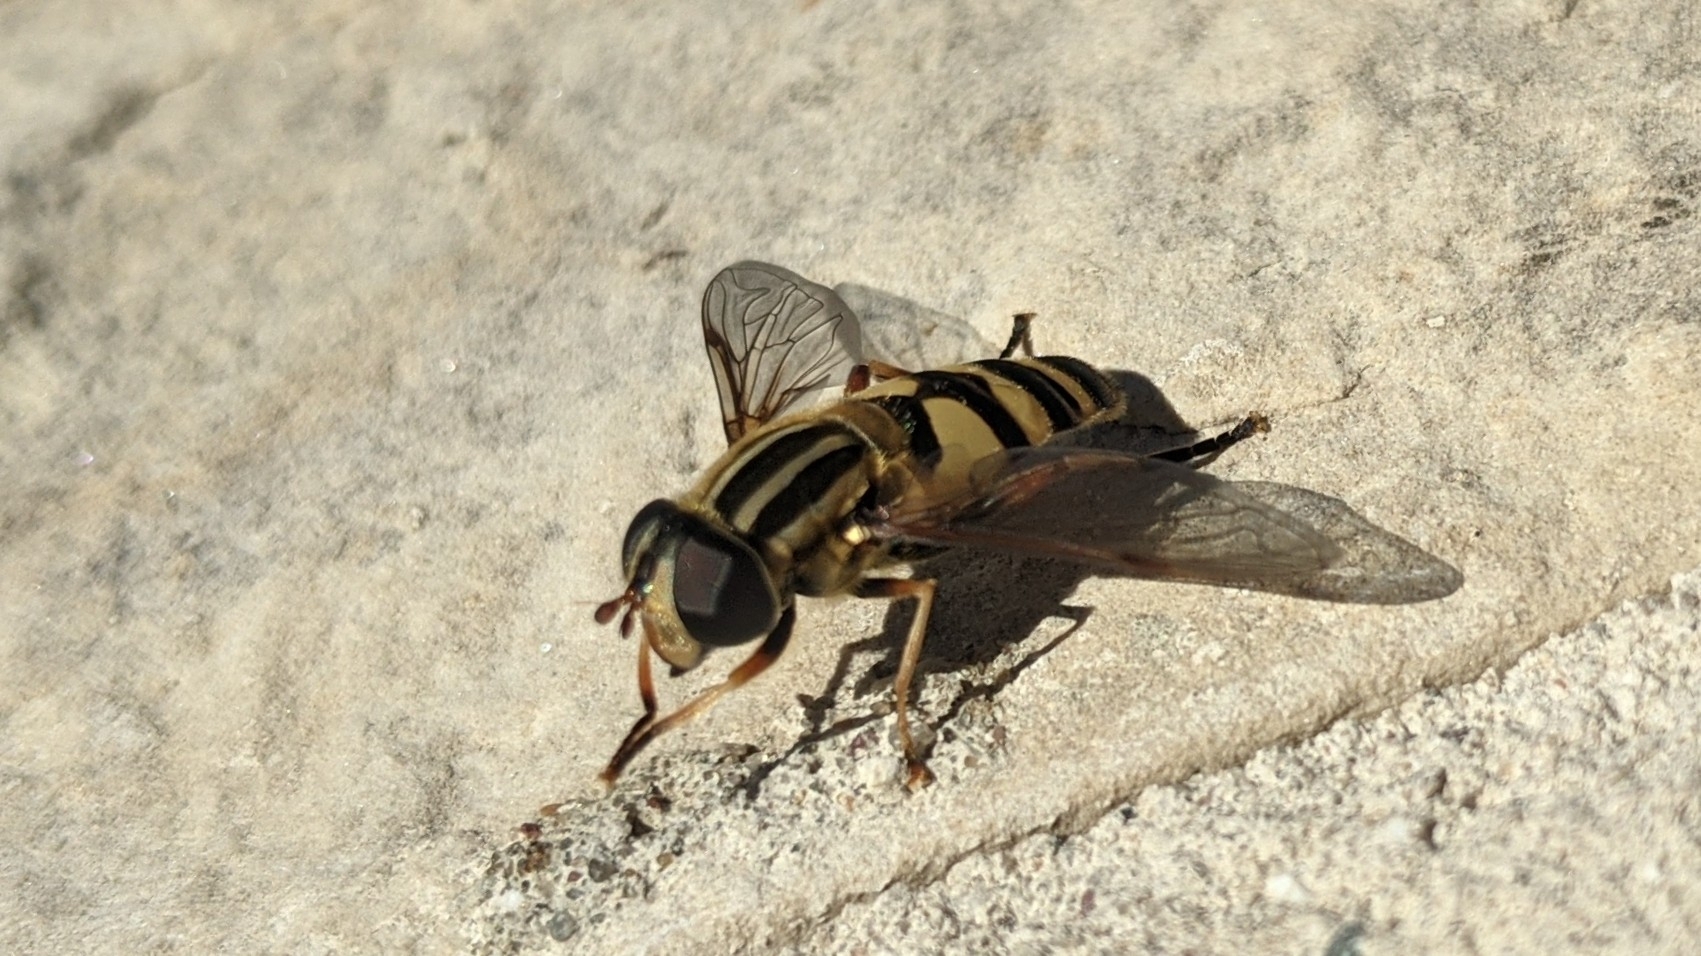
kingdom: Animalia
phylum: Arthropoda
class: Insecta
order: Diptera
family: Syrphidae
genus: Helophilus
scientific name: Helophilus fasciatus
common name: Narrow-headed marsh fly
